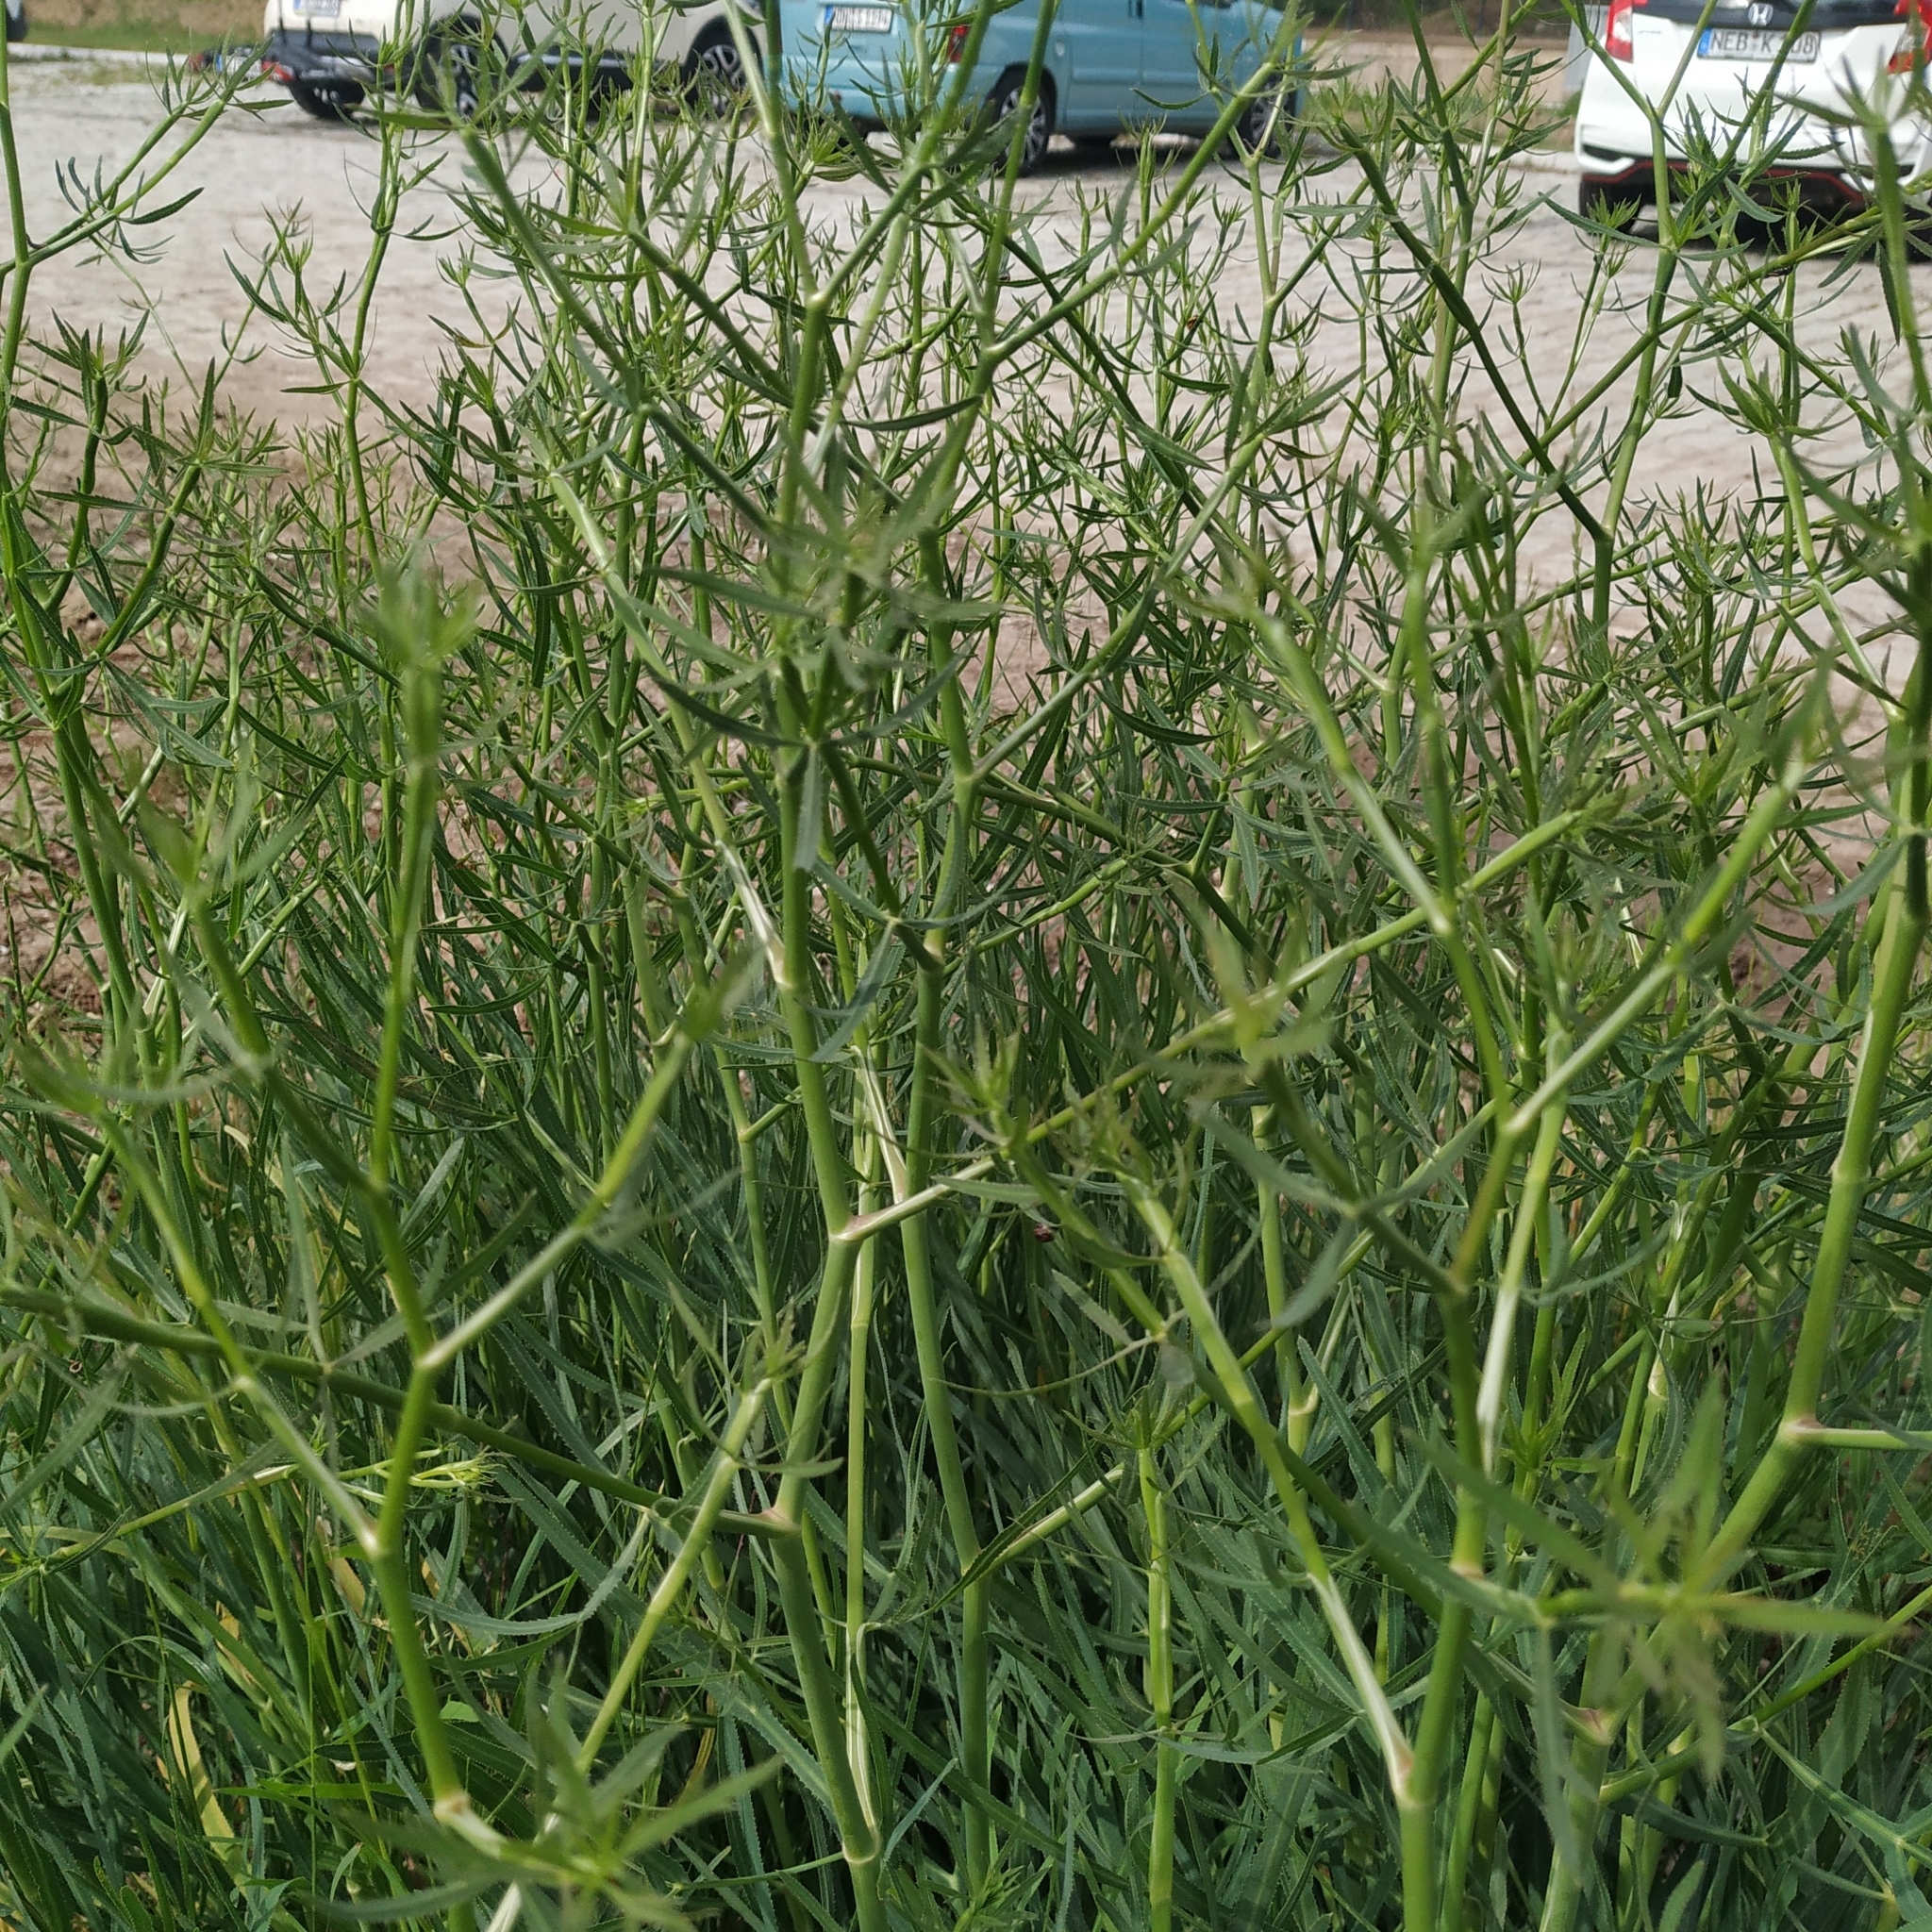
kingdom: Plantae
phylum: Tracheophyta
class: Magnoliopsida
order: Apiales
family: Apiaceae
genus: Falcaria
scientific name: Falcaria vulgaris
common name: Longleaf
